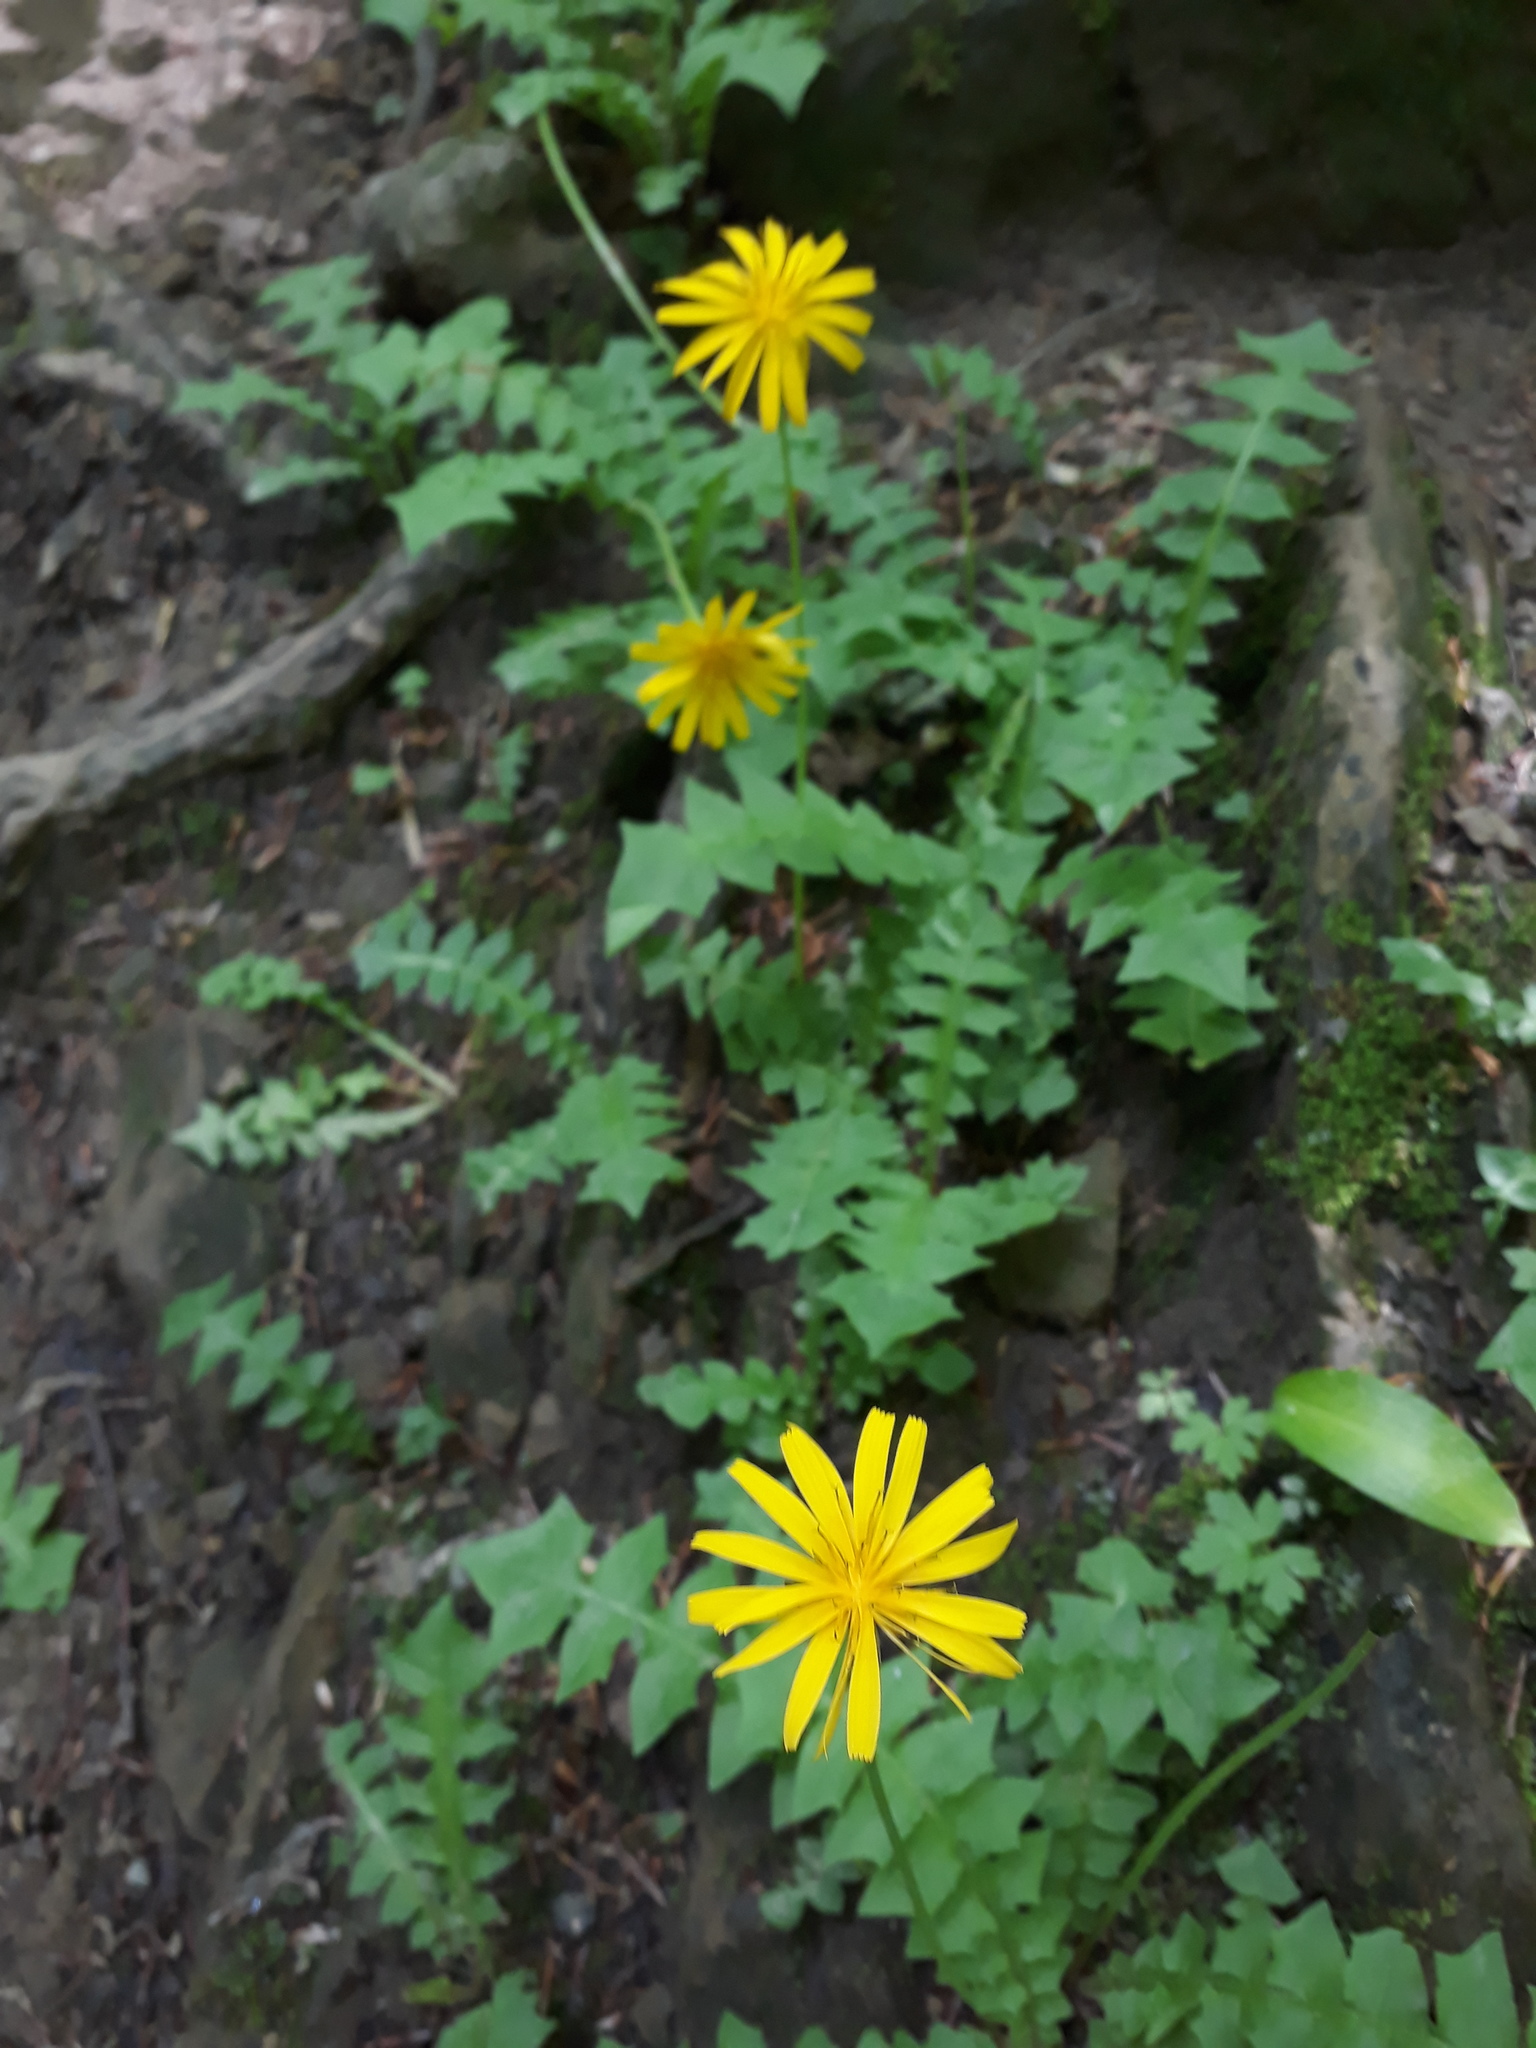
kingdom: Plantae
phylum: Tracheophyta
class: Magnoliopsida
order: Asterales
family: Asteraceae
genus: Aposeris
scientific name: Aposeris foetida
